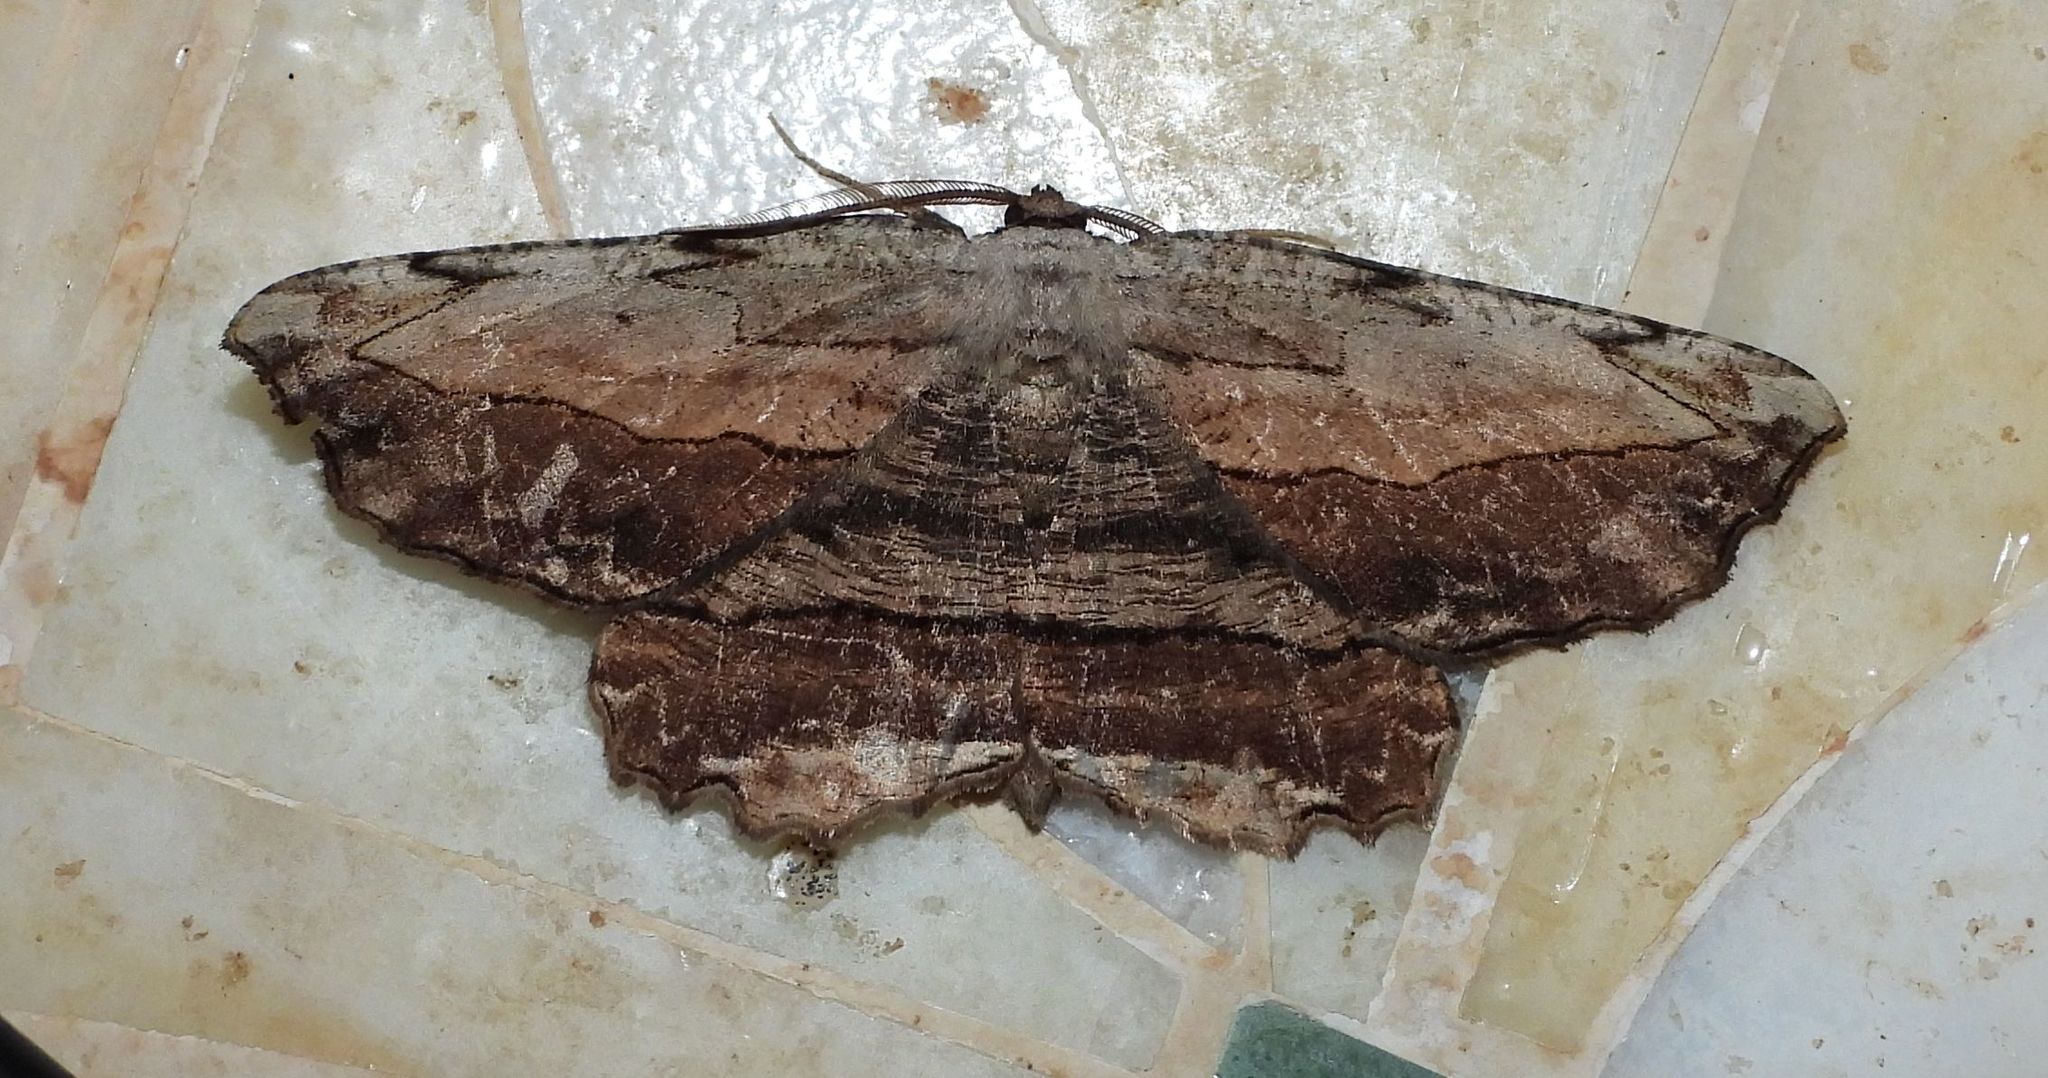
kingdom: Animalia
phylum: Arthropoda
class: Insecta
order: Lepidoptera
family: Geometridae
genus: Lytrosis
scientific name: Lytrosis unitaria
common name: Common lytrosis
